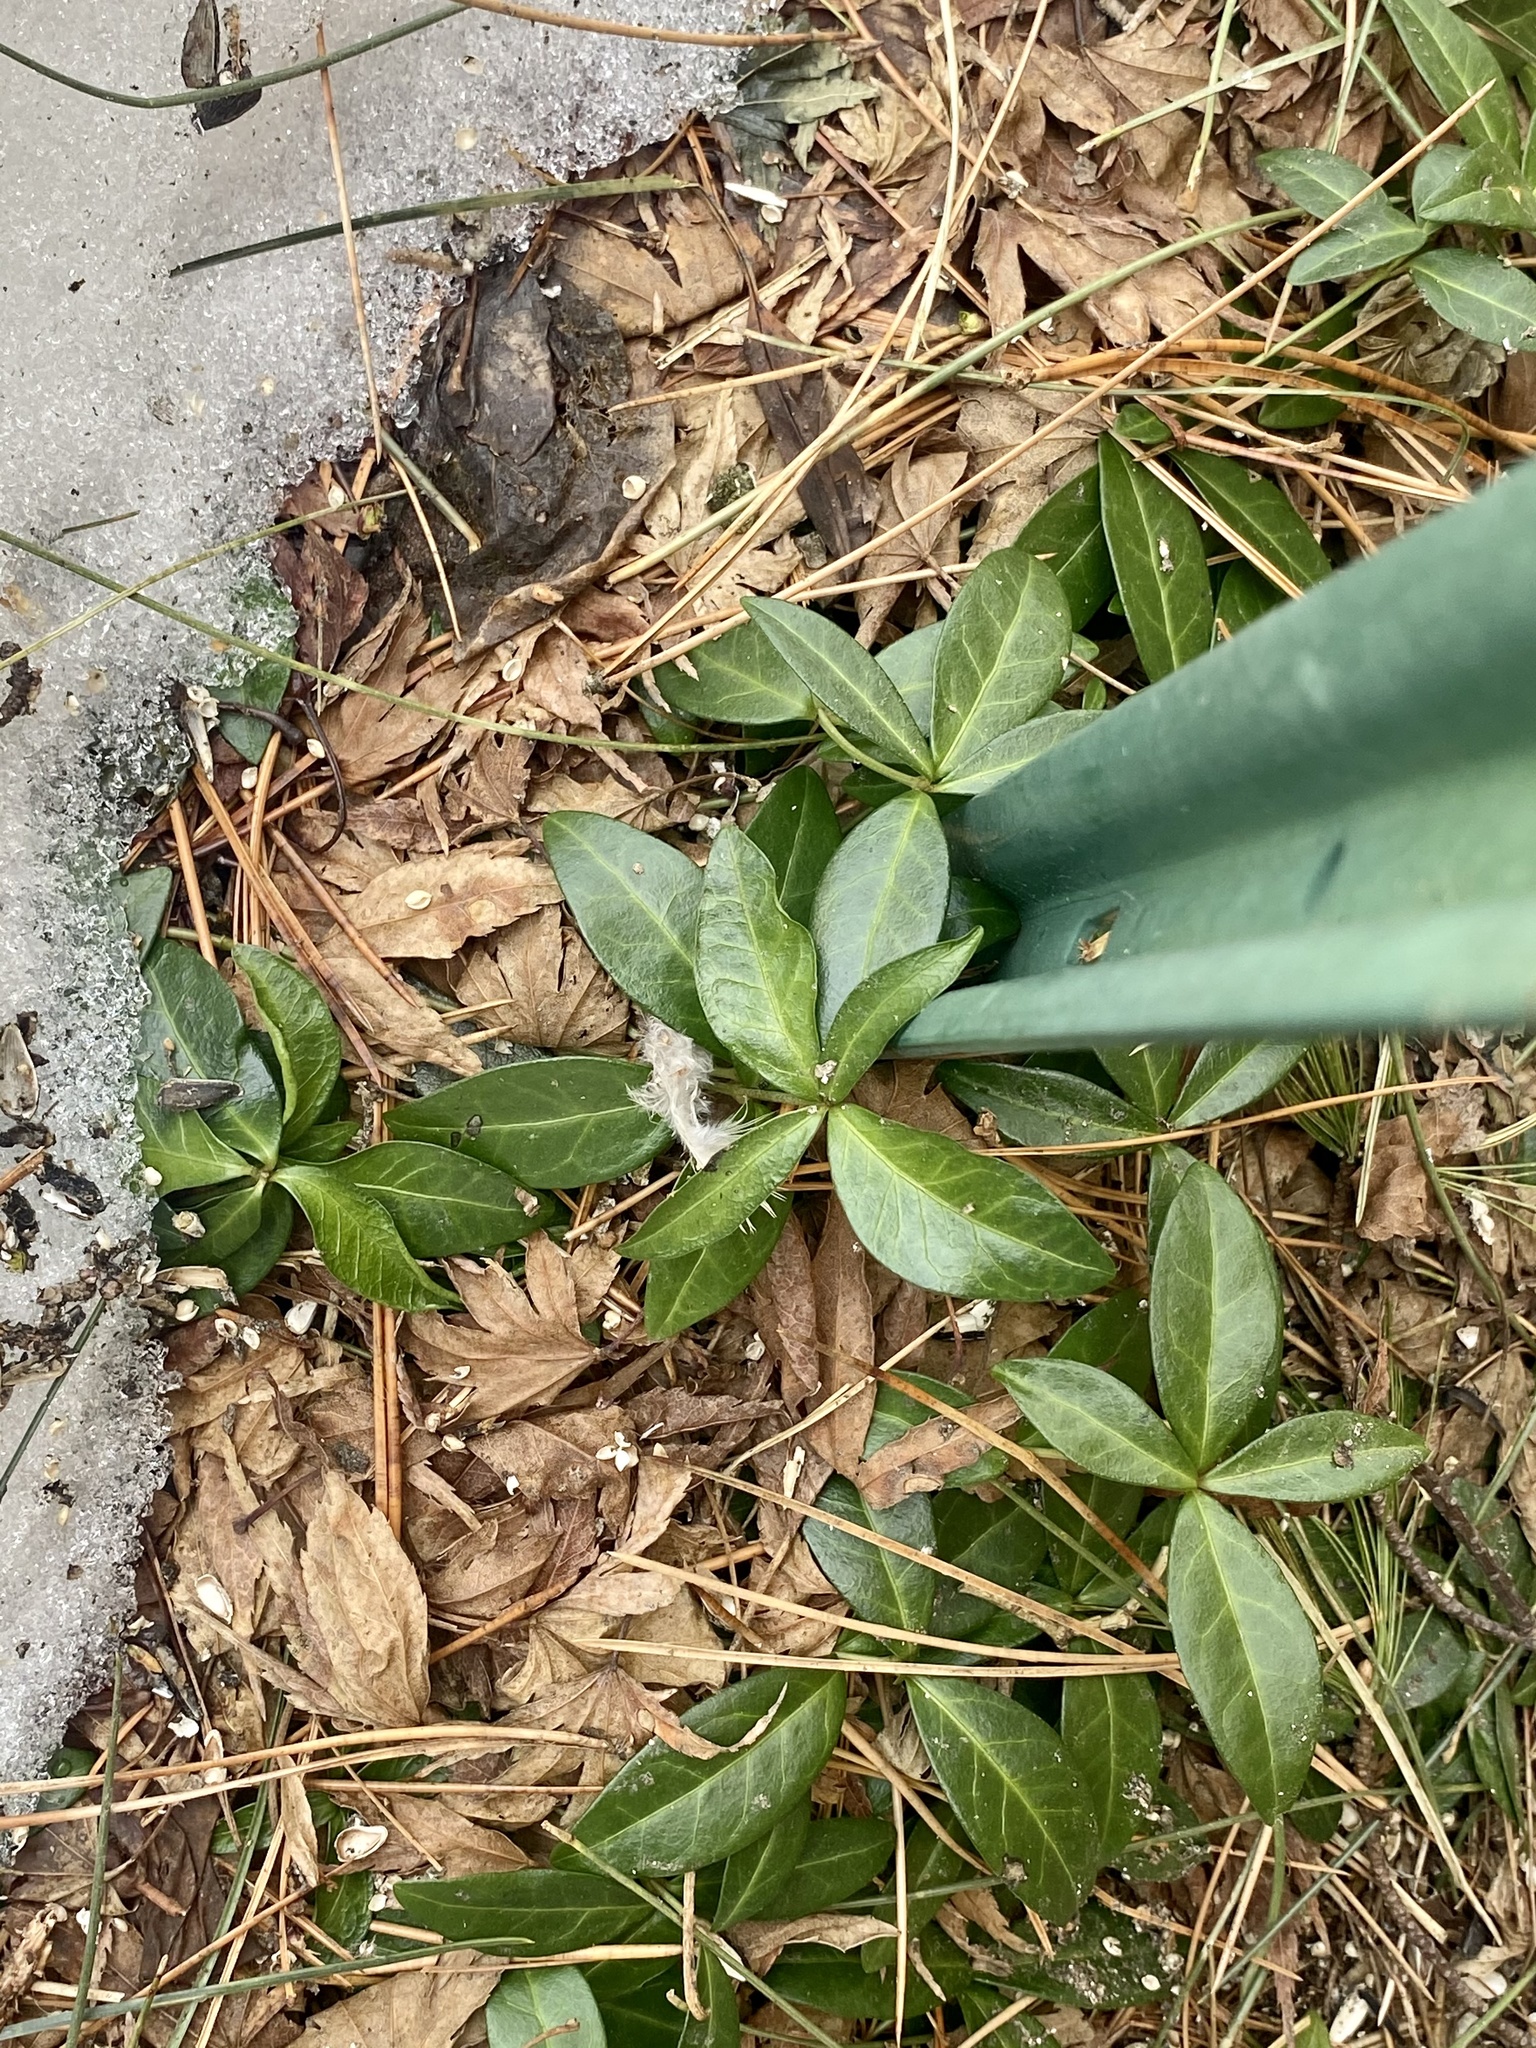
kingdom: Plantae
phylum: Tracheophyta
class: Magnoliopsida
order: Gentianales
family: Apocynaceae
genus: Vinca
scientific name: Vinca minor
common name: Lesser periwinkle
